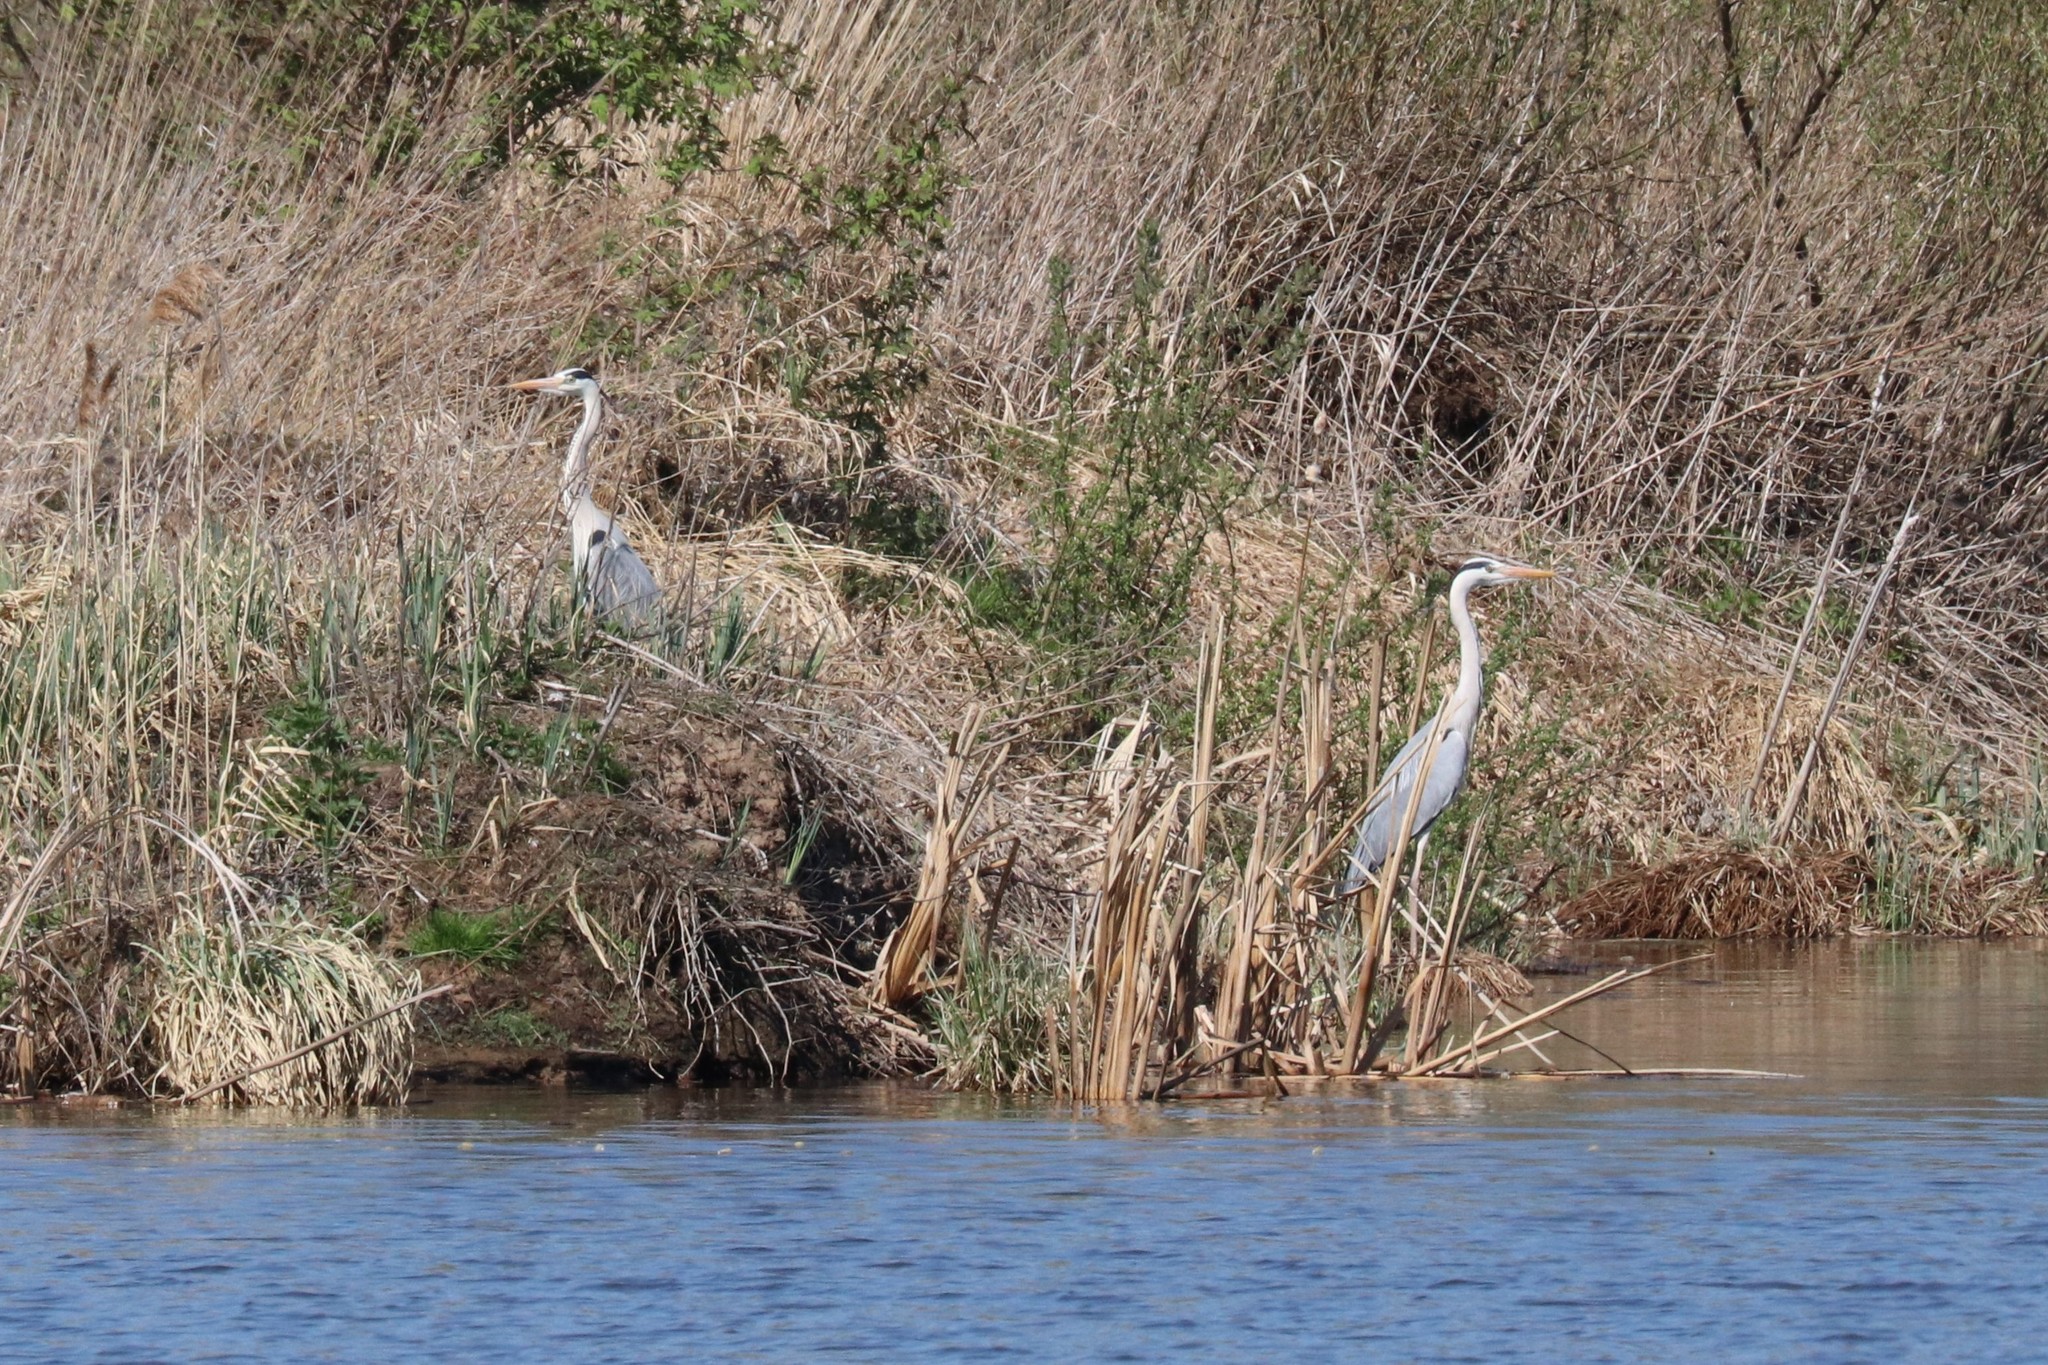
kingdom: Animalia
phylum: Chordata
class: Aves
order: Pelecaniformes
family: Ardeidae
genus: Ardea
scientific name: Ardea cinerea
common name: Grey heron
